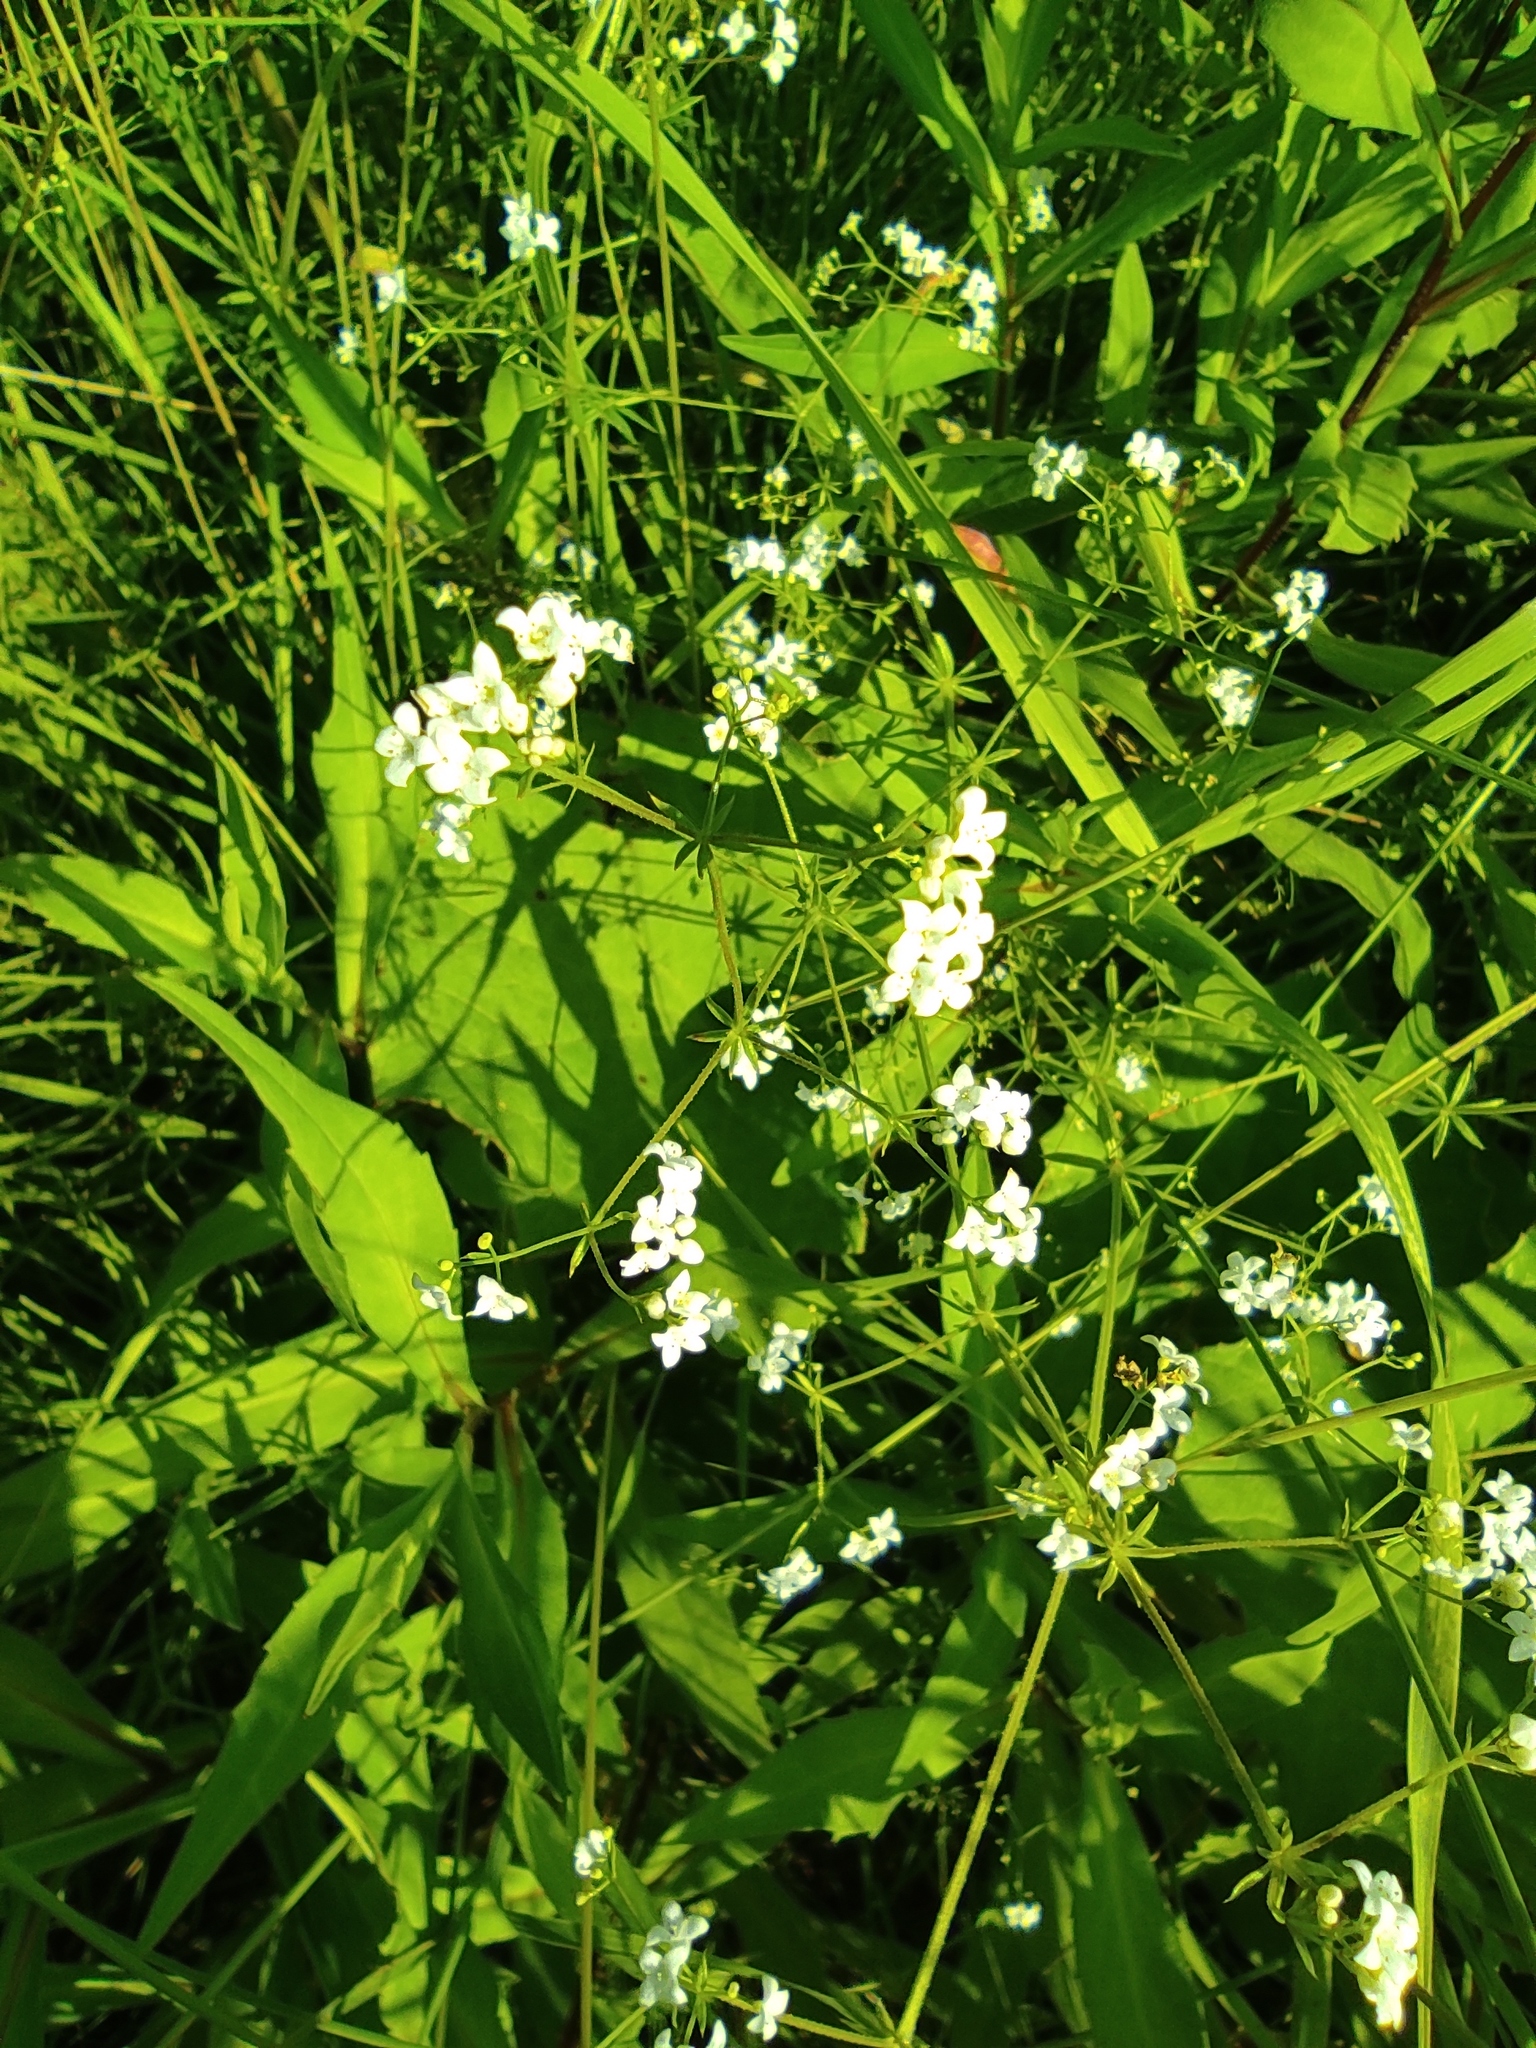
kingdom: Plantae
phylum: Tracheophyta
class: Magnoliopsida
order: Gentianales
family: Rubiaceae
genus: Galium
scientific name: Galium uliginosum
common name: Fen bedstraw
